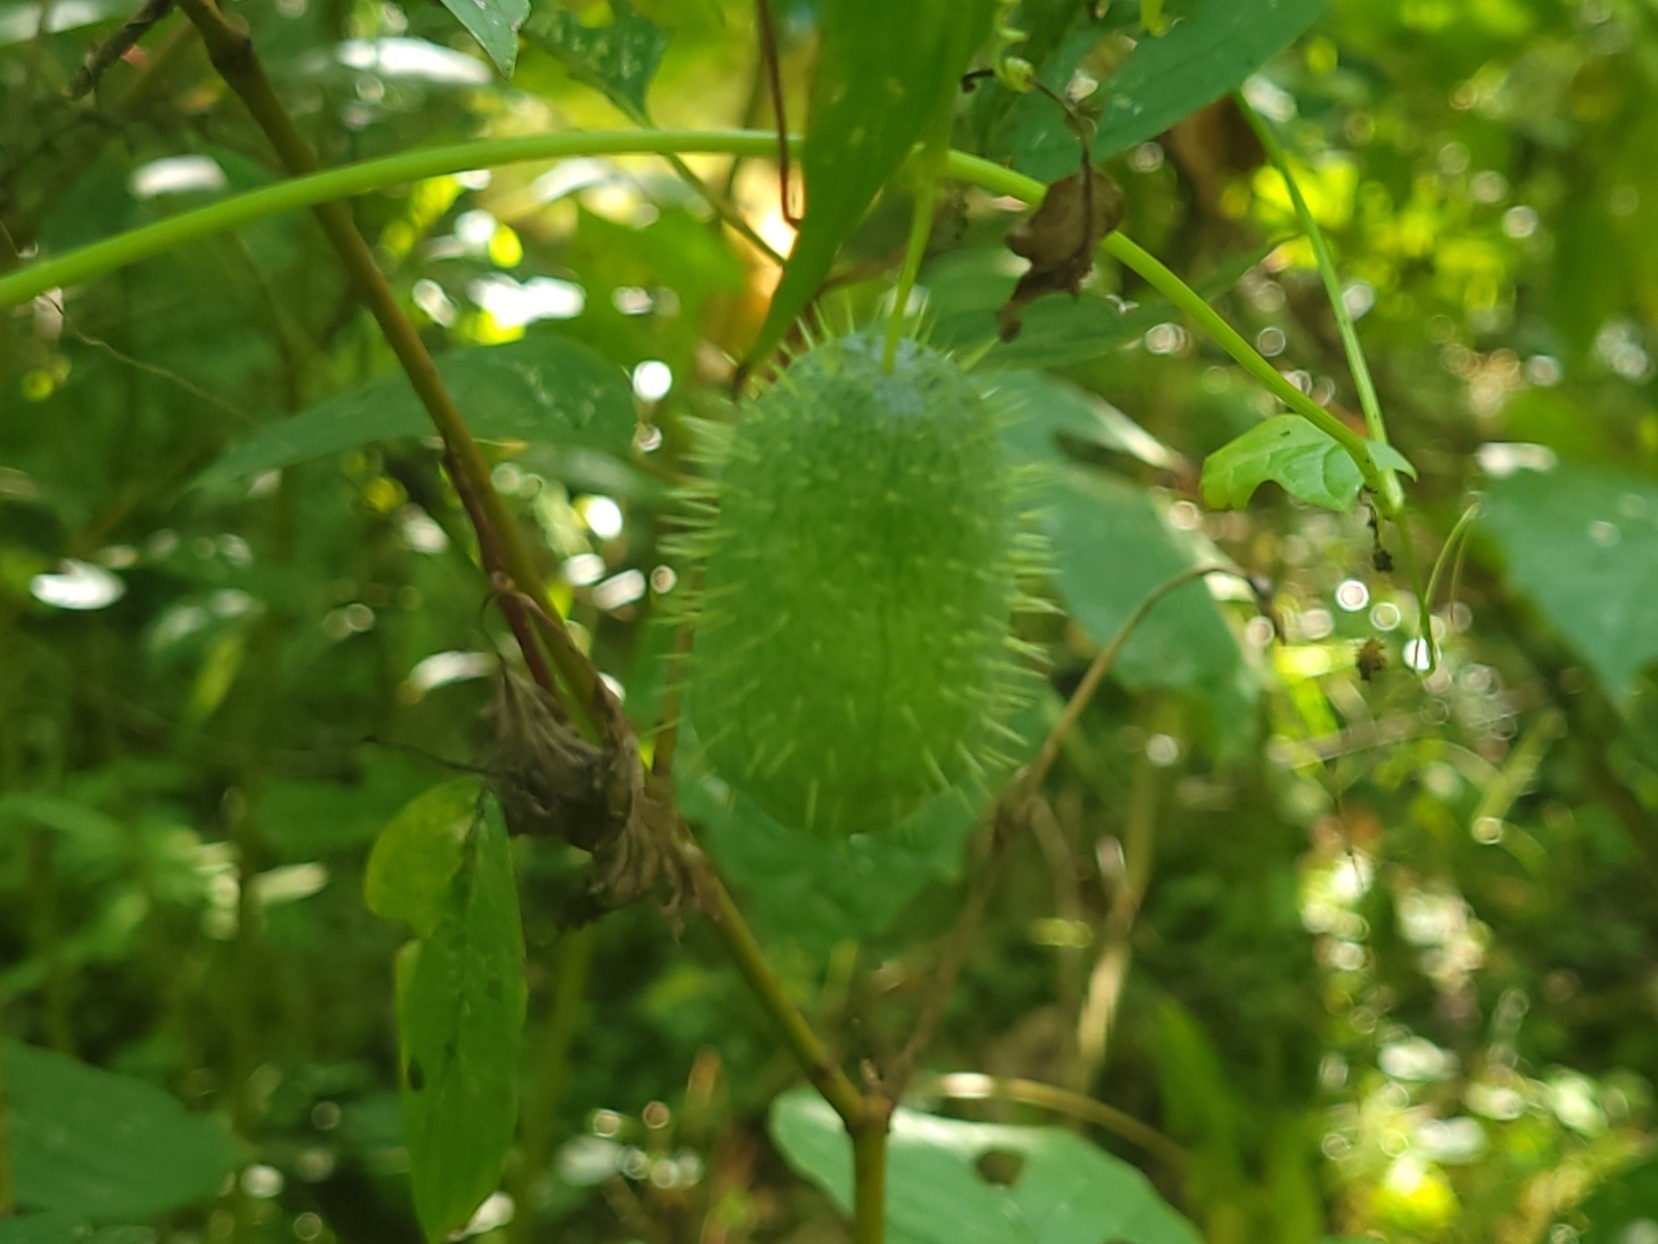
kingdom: Plantae
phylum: Tracheophyta
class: Magnoliopsida
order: Cucurbitales
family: Cucurbitaceae
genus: Echinocystis
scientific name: Echinocystis lobata
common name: Wild cucumber
